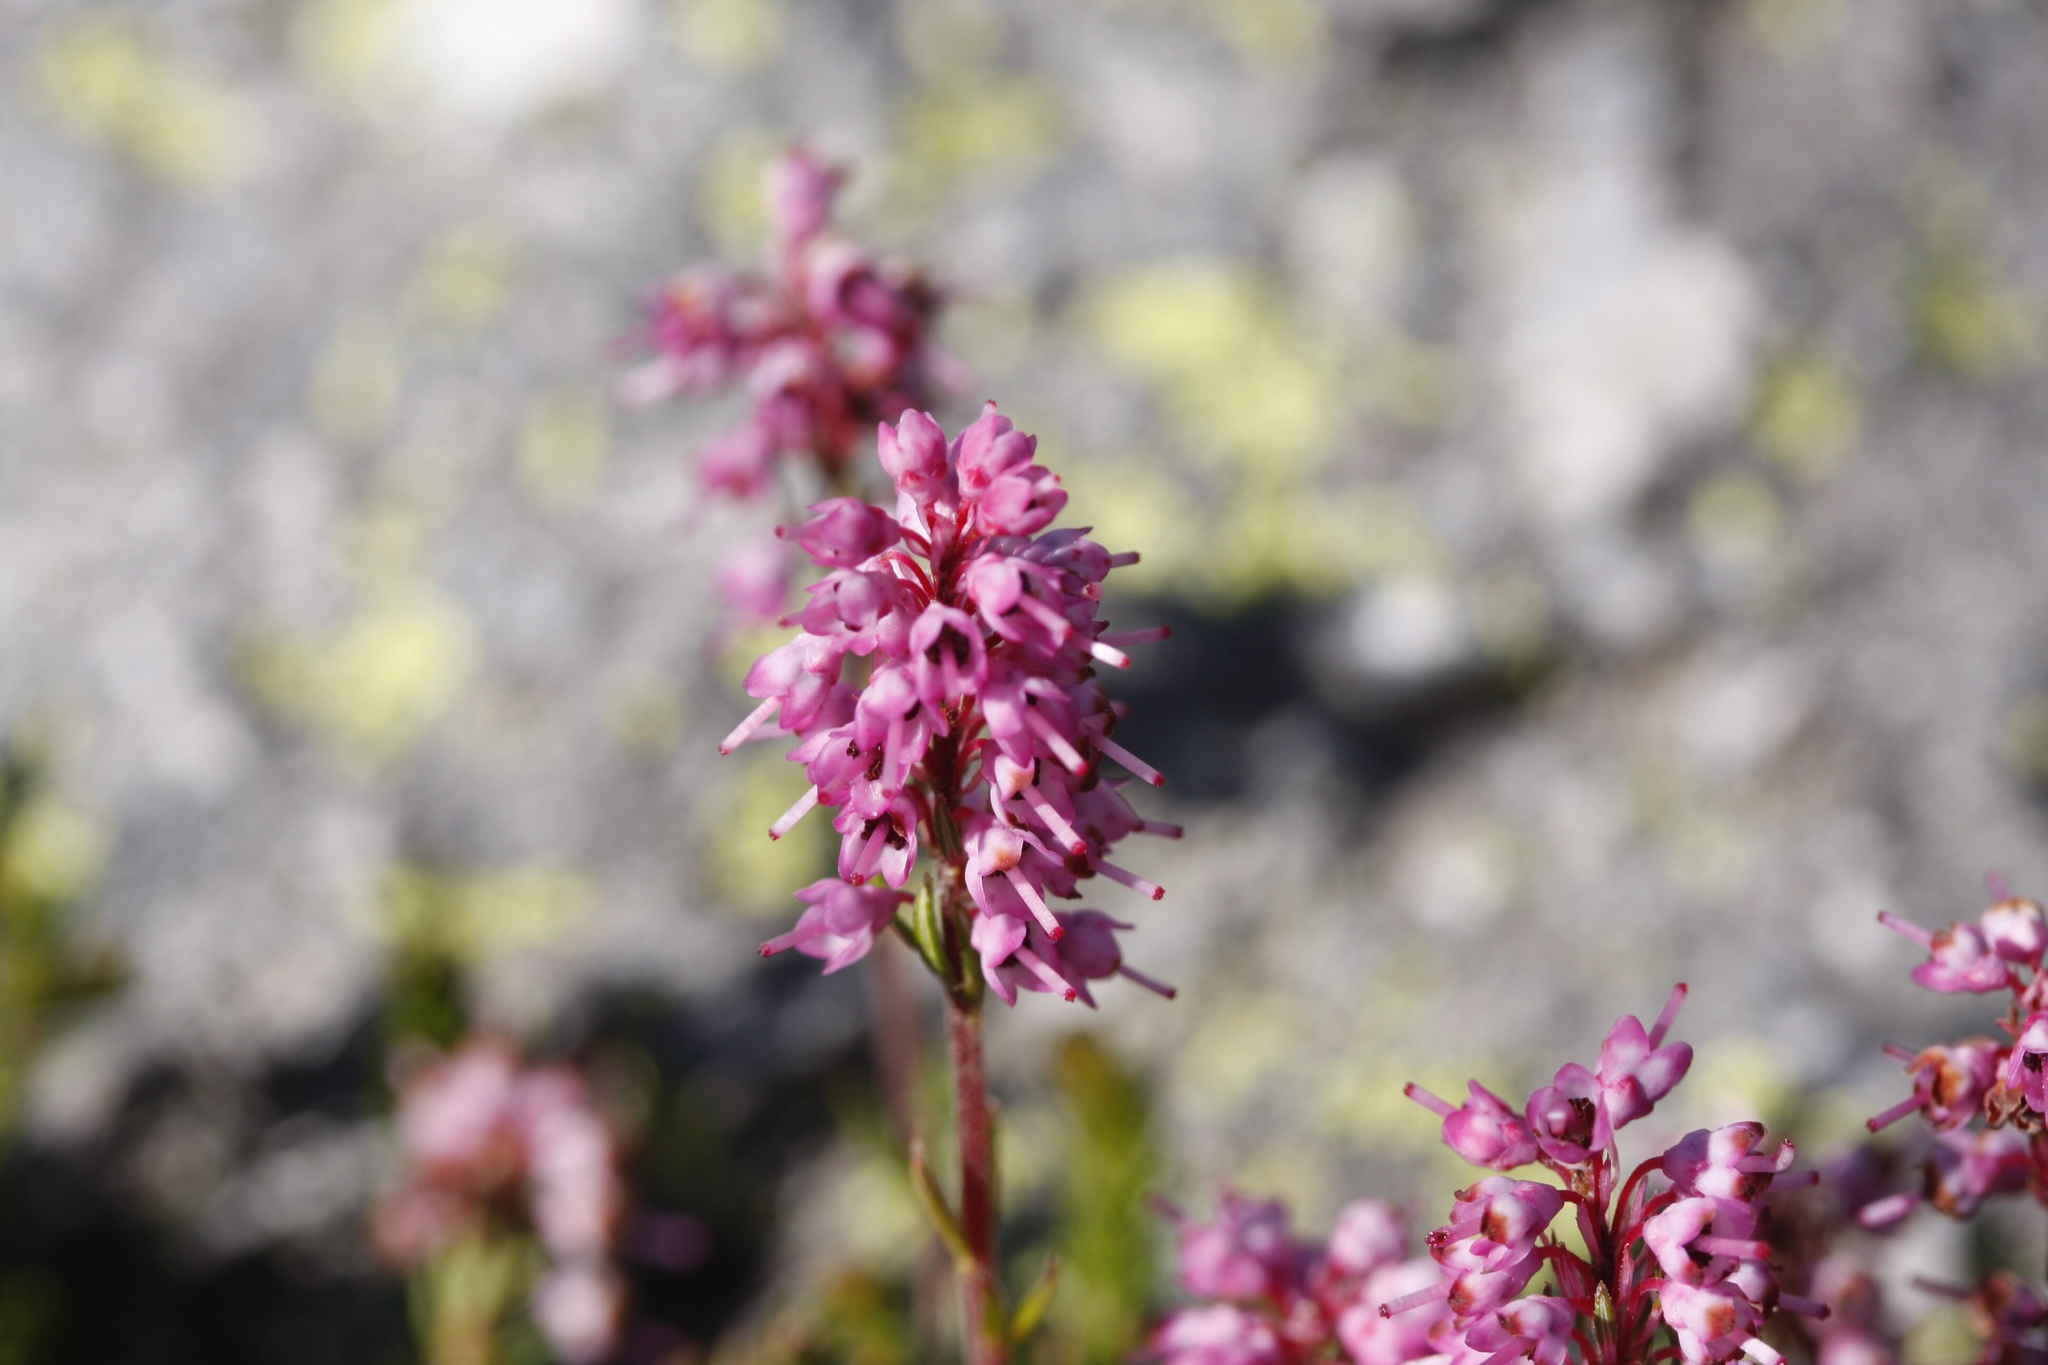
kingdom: Plantae
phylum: Tracheophyta
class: Magnoliopsida
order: Ericales
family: Ericaceae
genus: Erica
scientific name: Erica spiculifolia
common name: Spike heath
